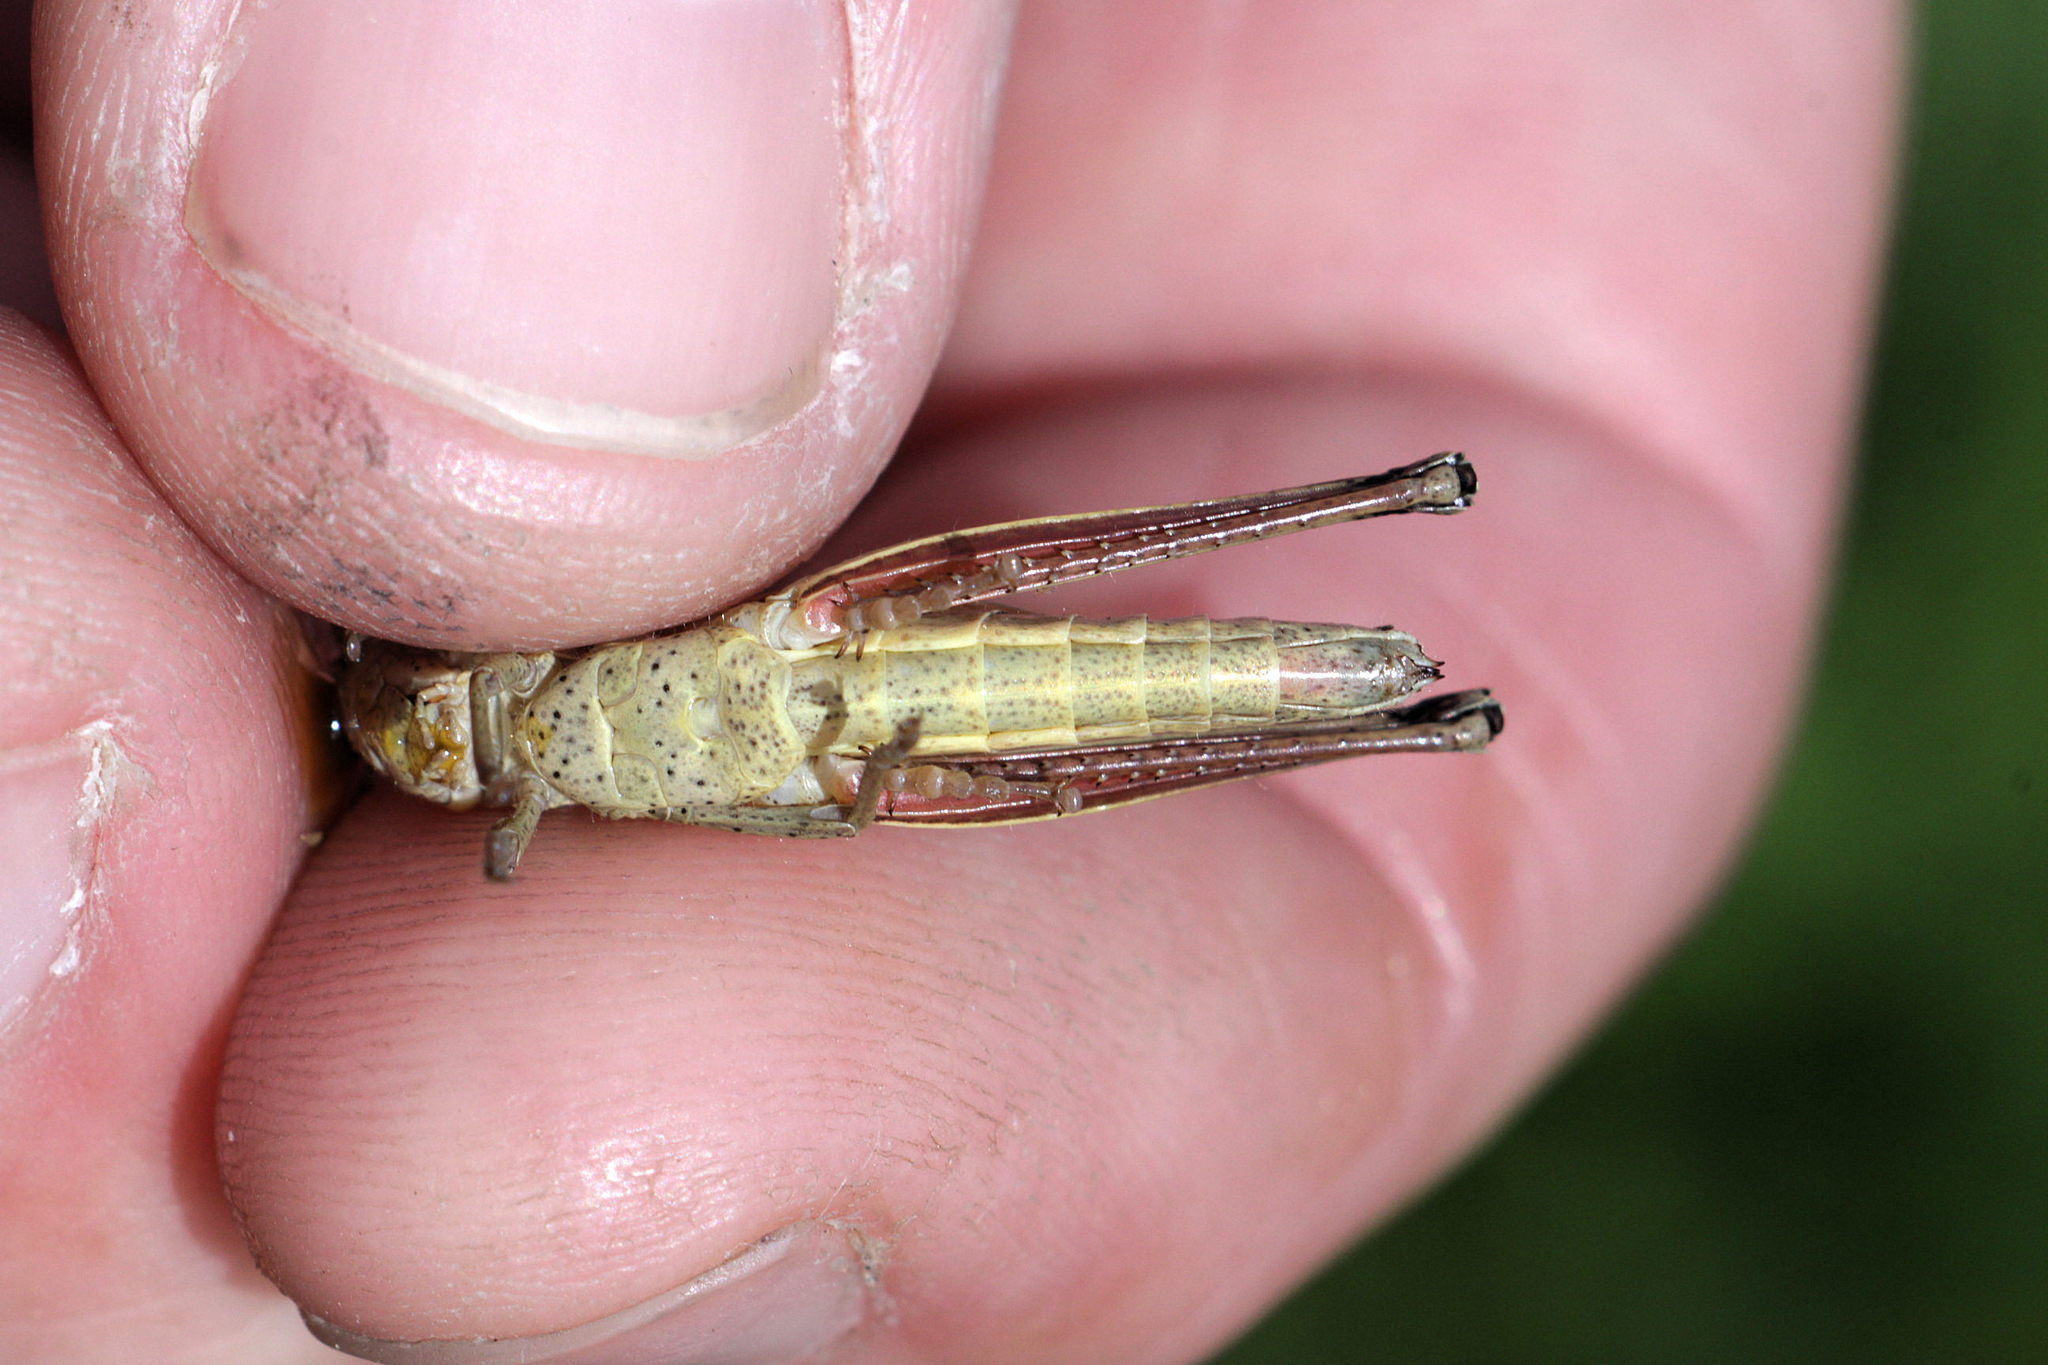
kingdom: Animalia
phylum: Arthropoda
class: Insecta
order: Orthoptera
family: Acrididae
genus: Chrysochraon
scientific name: Chrysochraon dispar
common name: Large gold grasshopper
